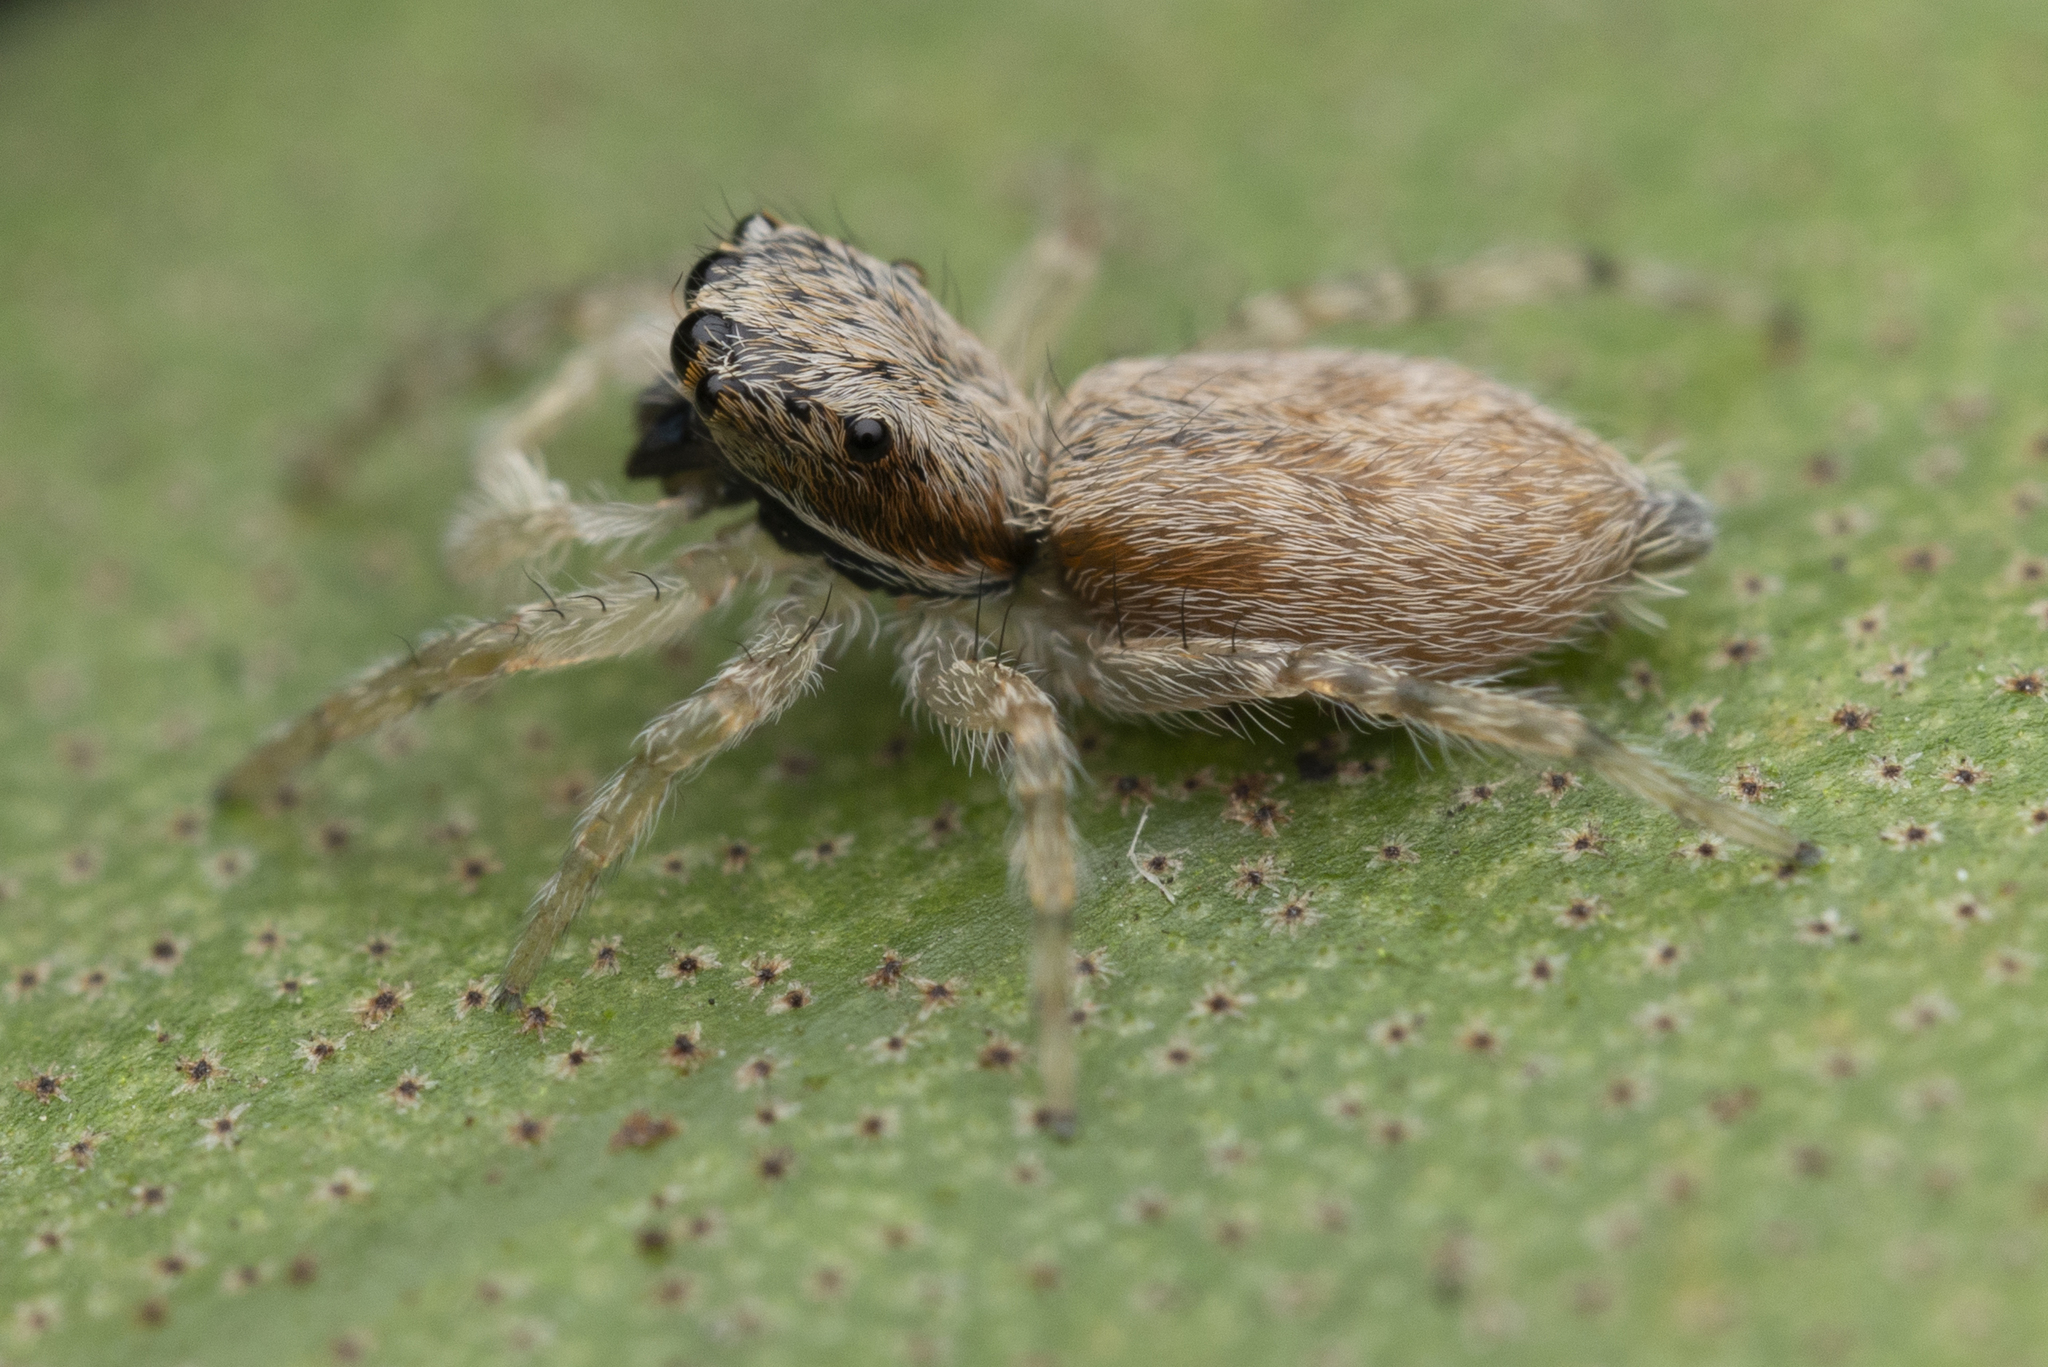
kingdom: Animalia
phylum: Arthropoda
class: Arachnida
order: Araneae
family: Salticidae
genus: Menemerus
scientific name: Menemerus bivittatus
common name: Gray wall jumper
